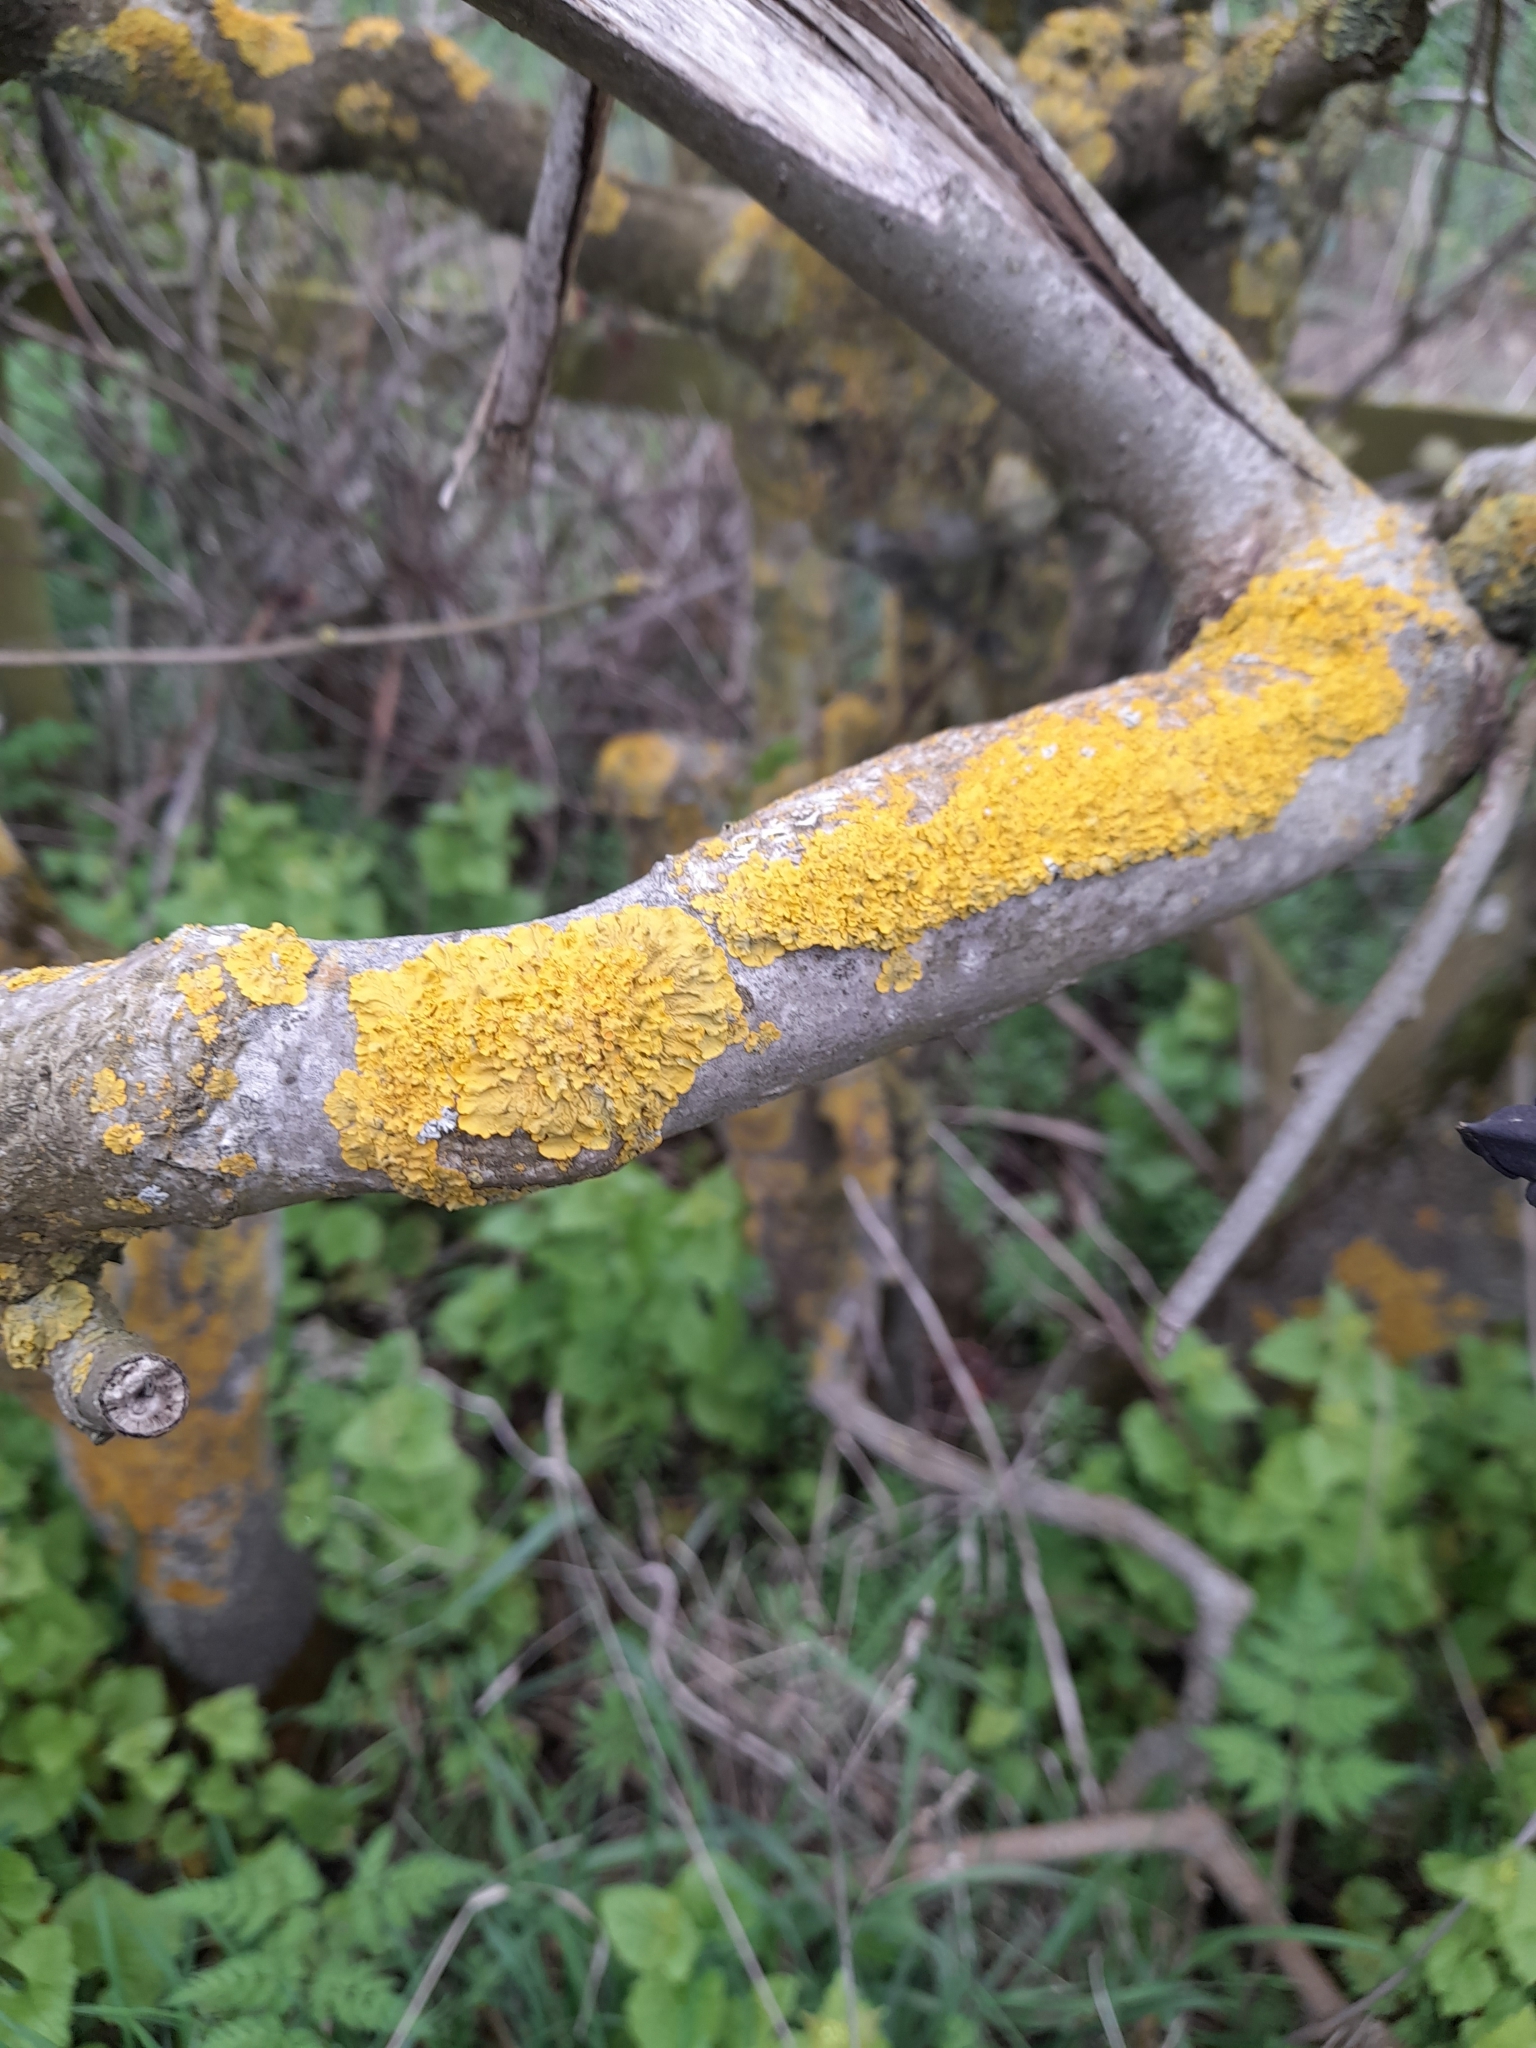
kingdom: Fungi
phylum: Ascomycota
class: Lecanoromycetes
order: Teloschistales
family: Teloschistaceae
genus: Xanthoria
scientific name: Xanthoria parietina
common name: Common orange lichen
